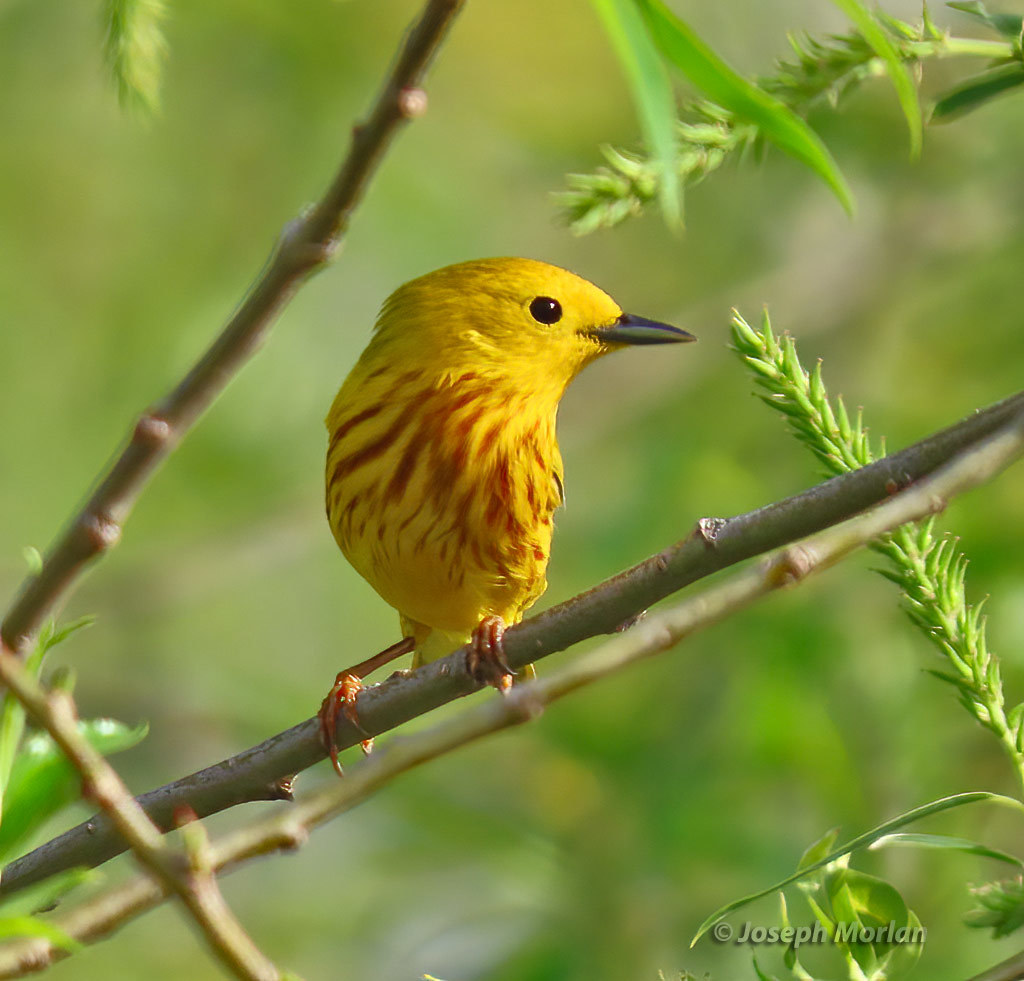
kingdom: Animalia
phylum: Chordata
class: Aves
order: Passeriformes
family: Parulidae
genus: Setophaga
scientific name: Setophaga petechia
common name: Yellow warbler
